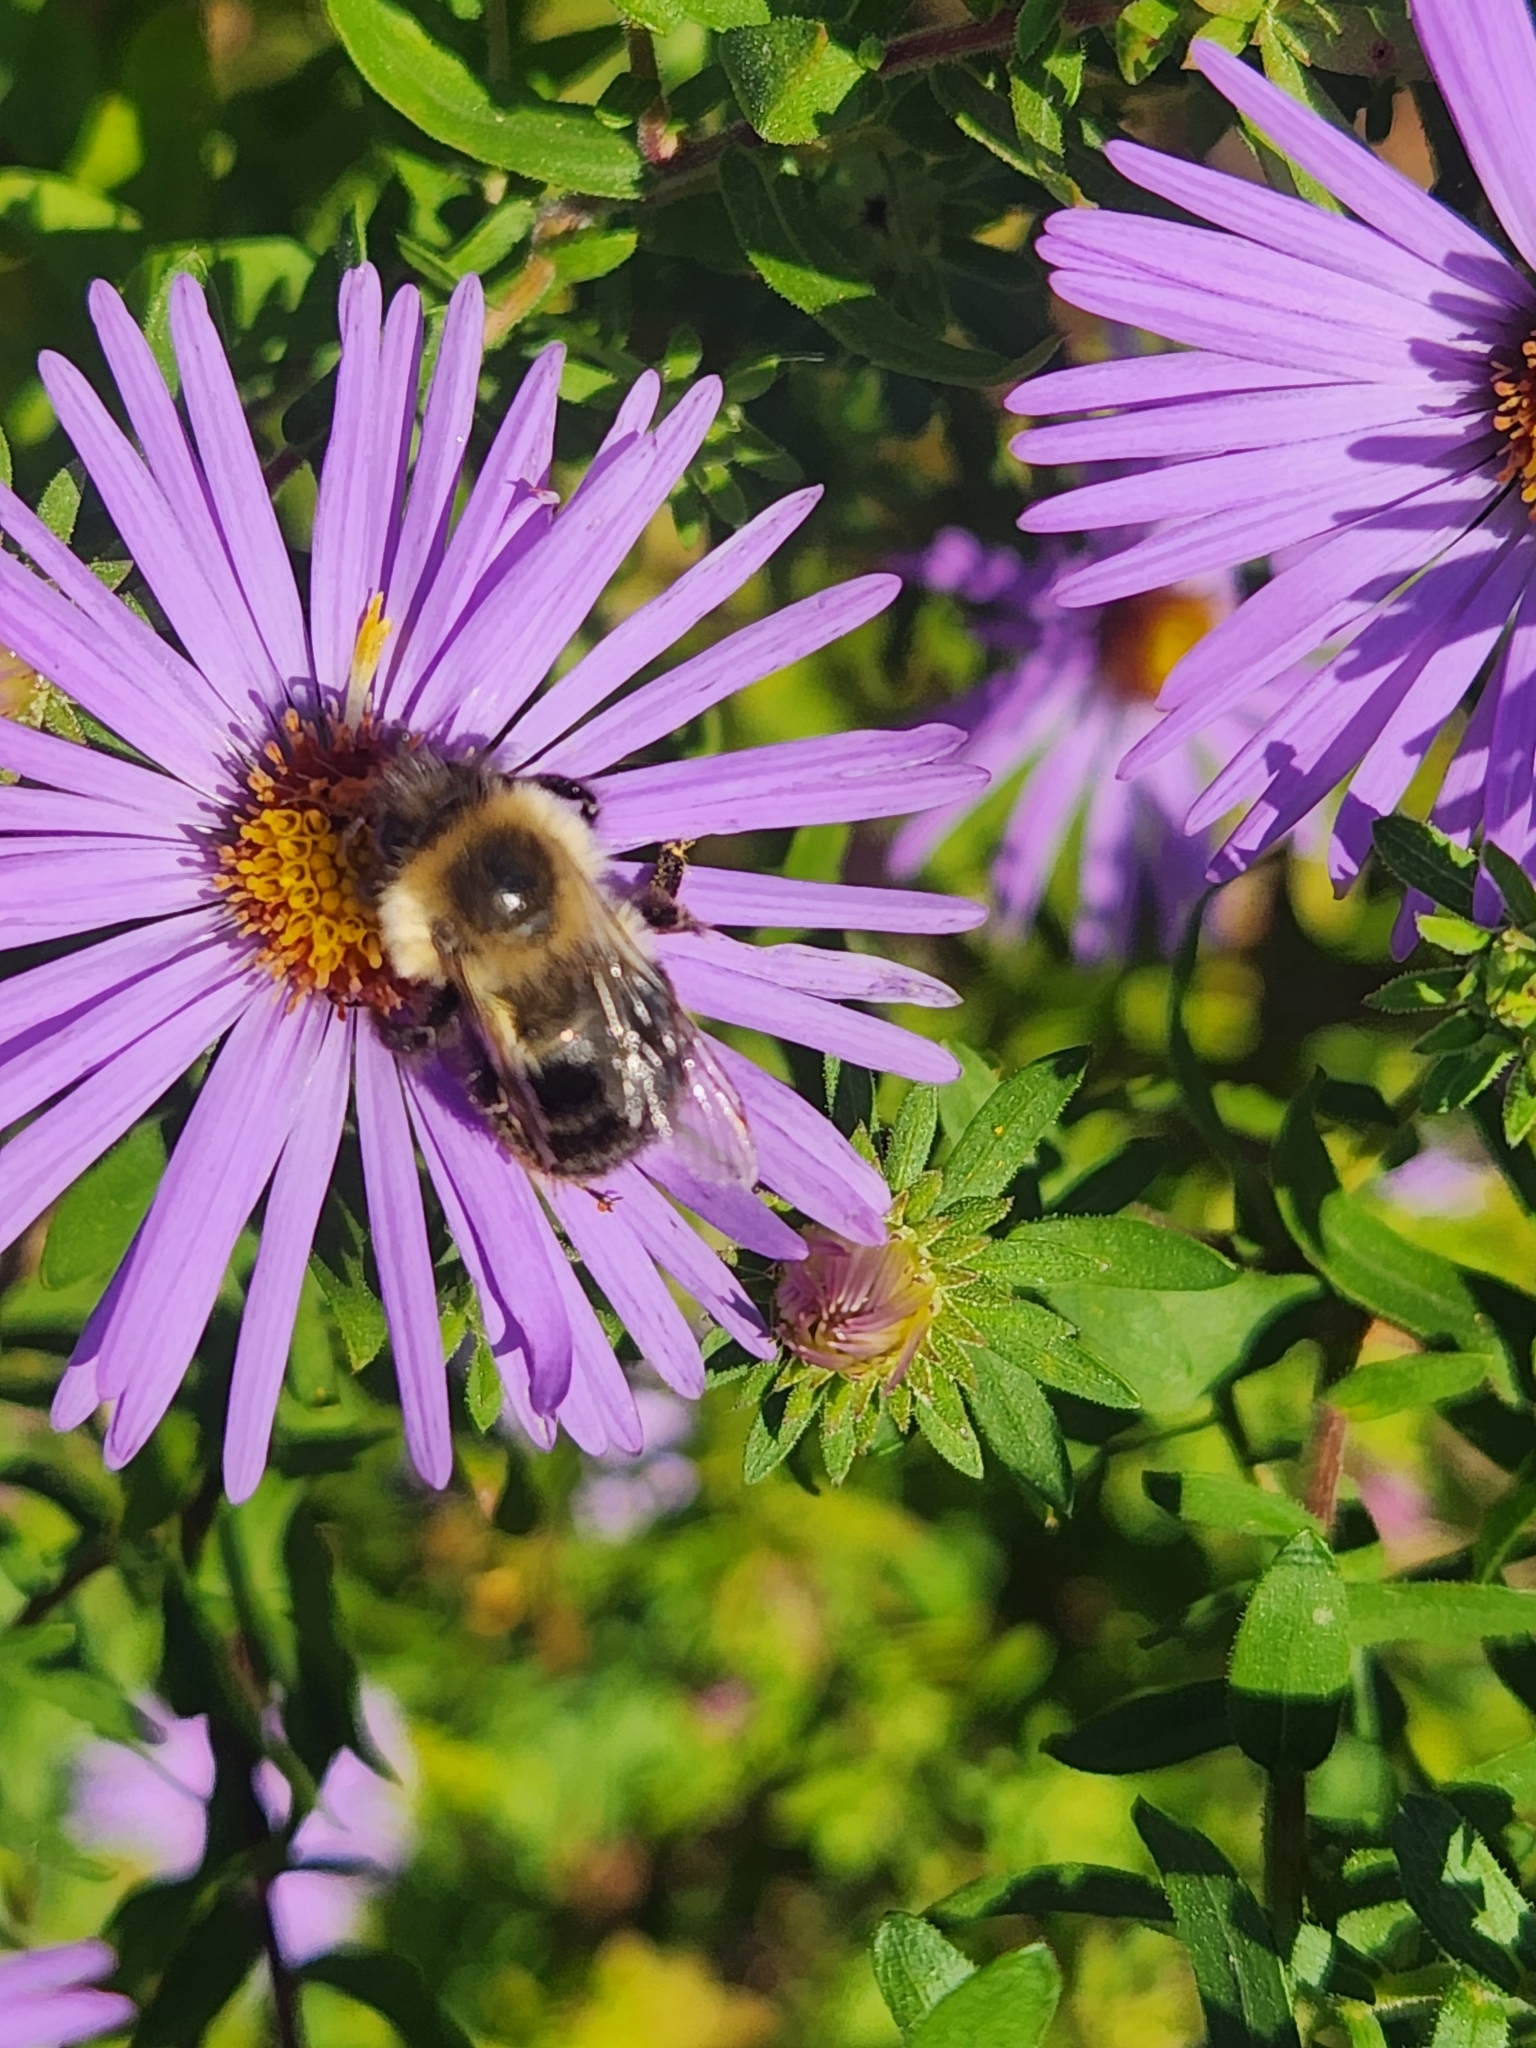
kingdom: Animalia
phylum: Arthropoda
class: Insecta
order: Hymenoptera
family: Apidae
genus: Bombus
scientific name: Bombus impatiens
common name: Common eastern bumble bee
